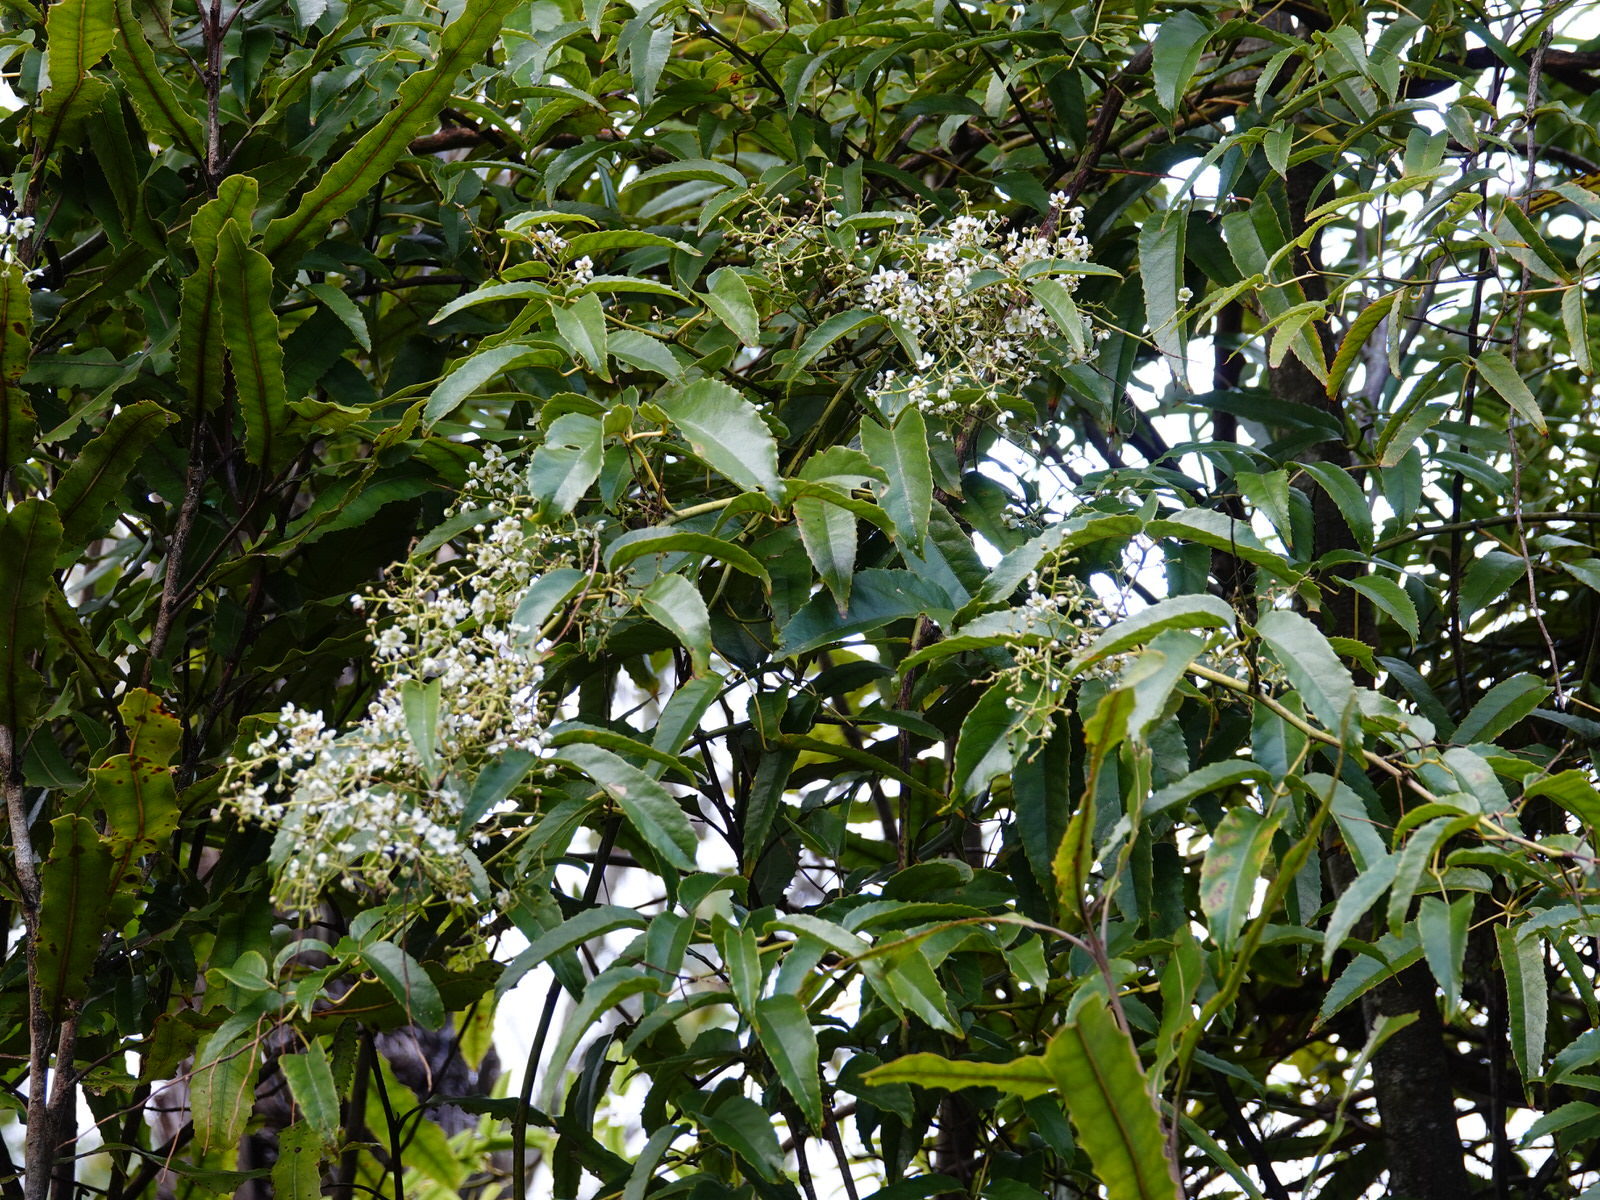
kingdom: Plantae
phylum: Tracheophyta
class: Magnoliopsida
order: Rosales
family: Rosaceae
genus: Rubus
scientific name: Rubus cissoides
